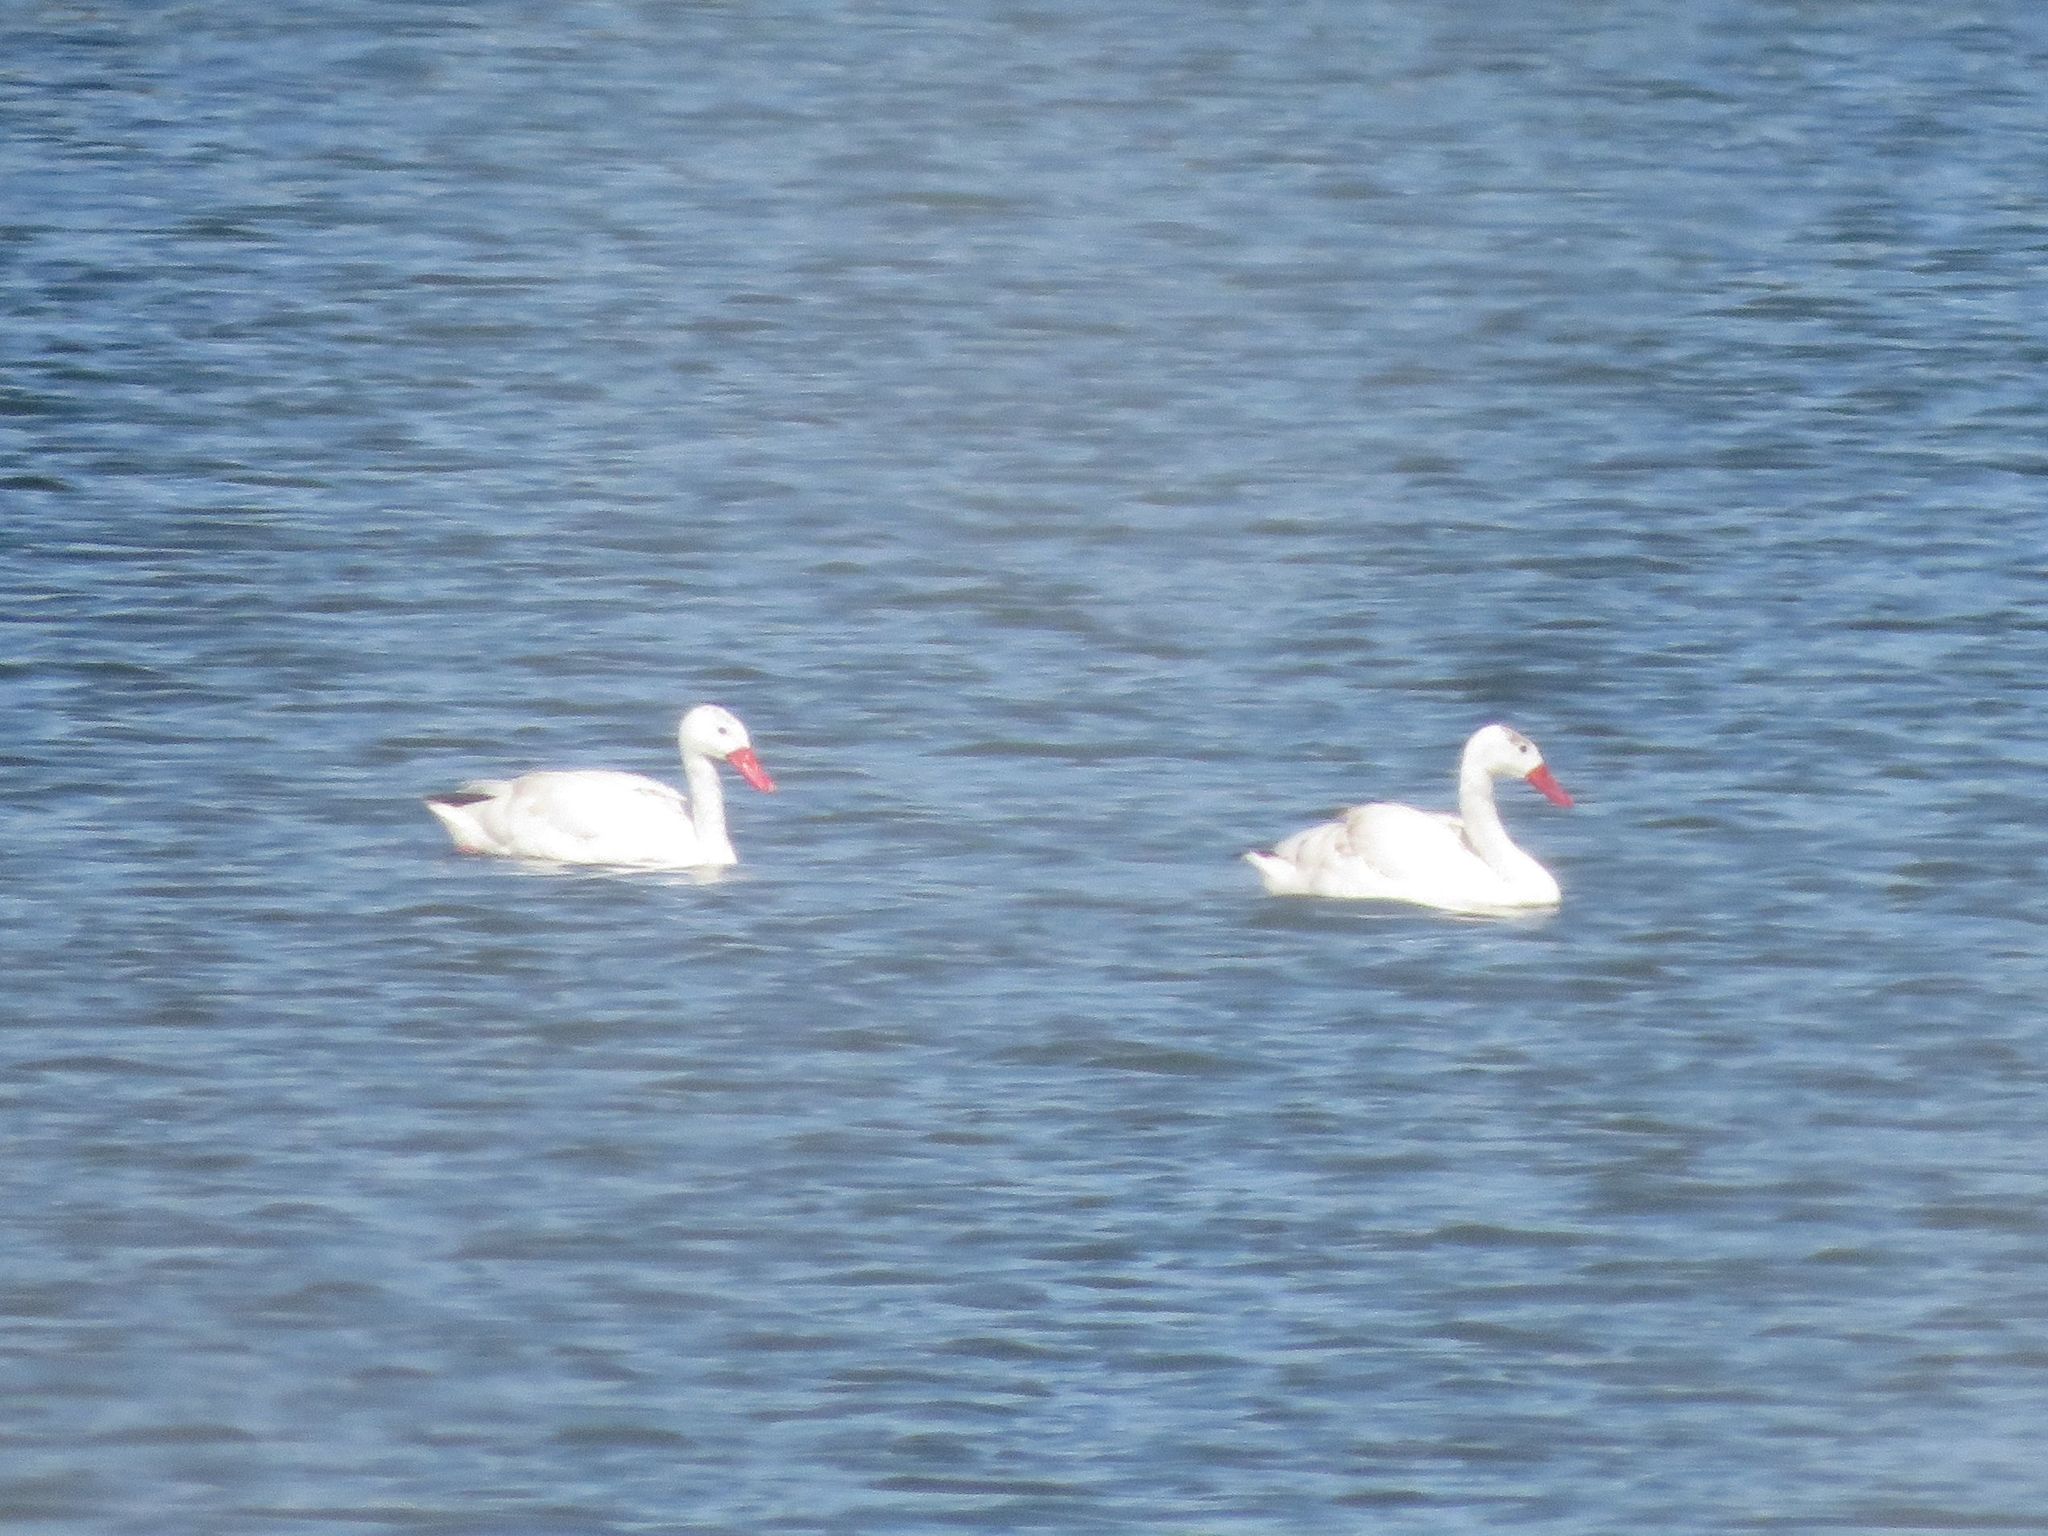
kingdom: Animalia
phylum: Chordata
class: Aves
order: Anseriformes
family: Anatidae
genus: Coscoroba
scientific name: Coscoroba coscoroba
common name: Coscoroba swan
